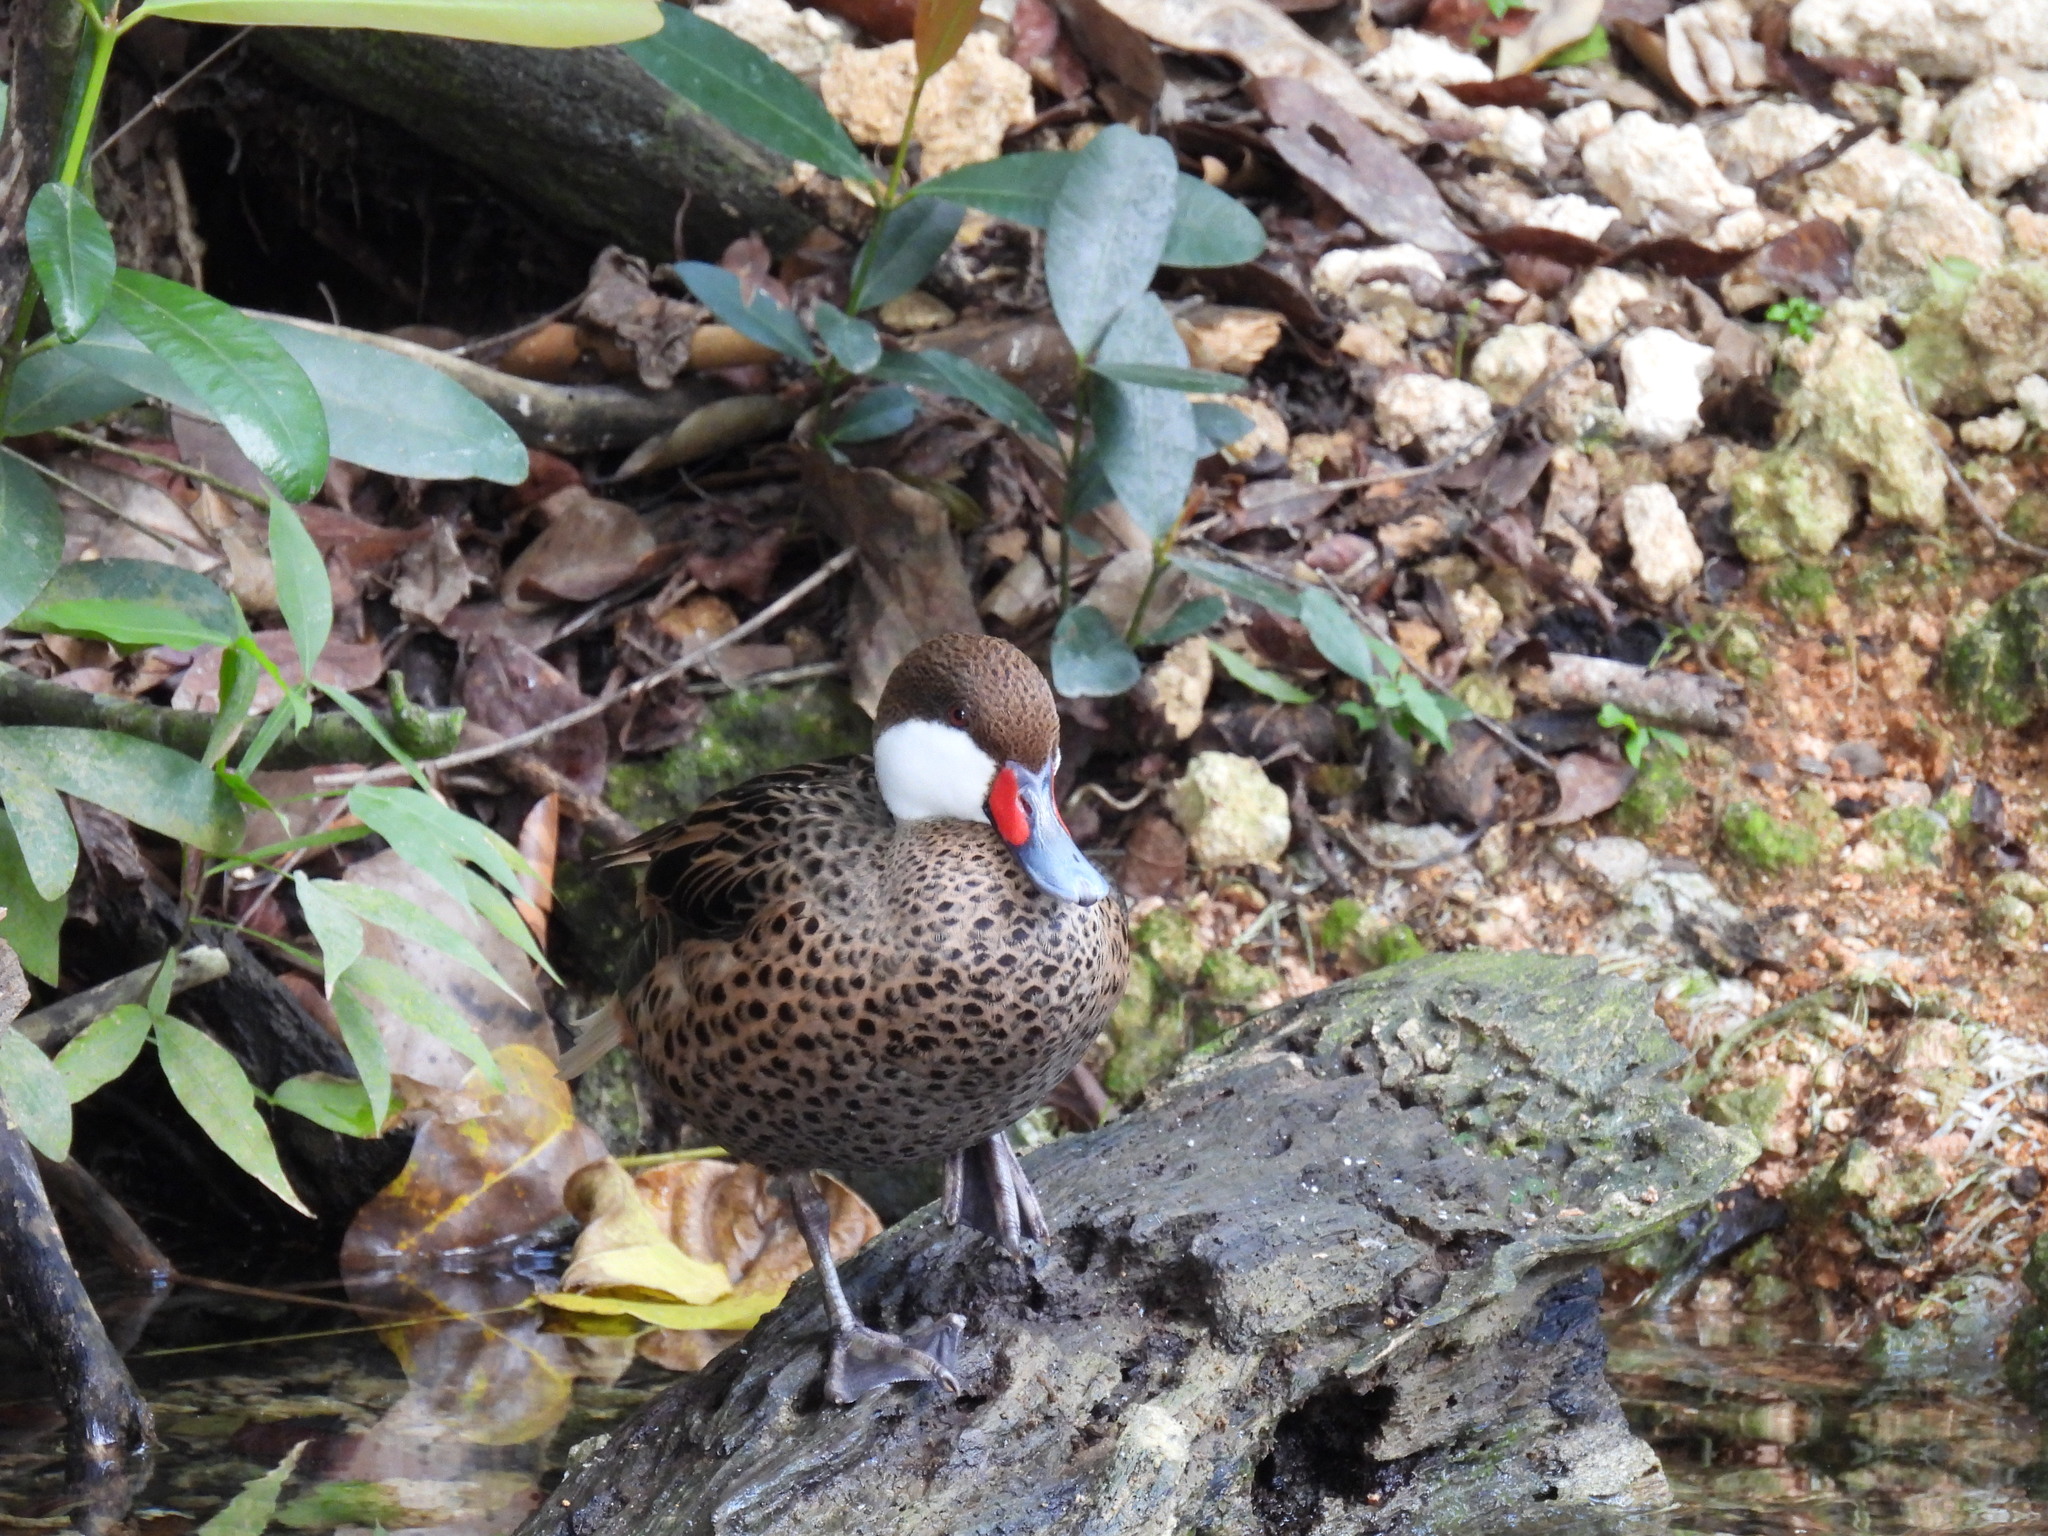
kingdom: Animalia
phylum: Chordata
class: Aves
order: Anseriformes
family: Anatidae
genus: Anas
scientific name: Anas bahamensis
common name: White-cheeked pintail
